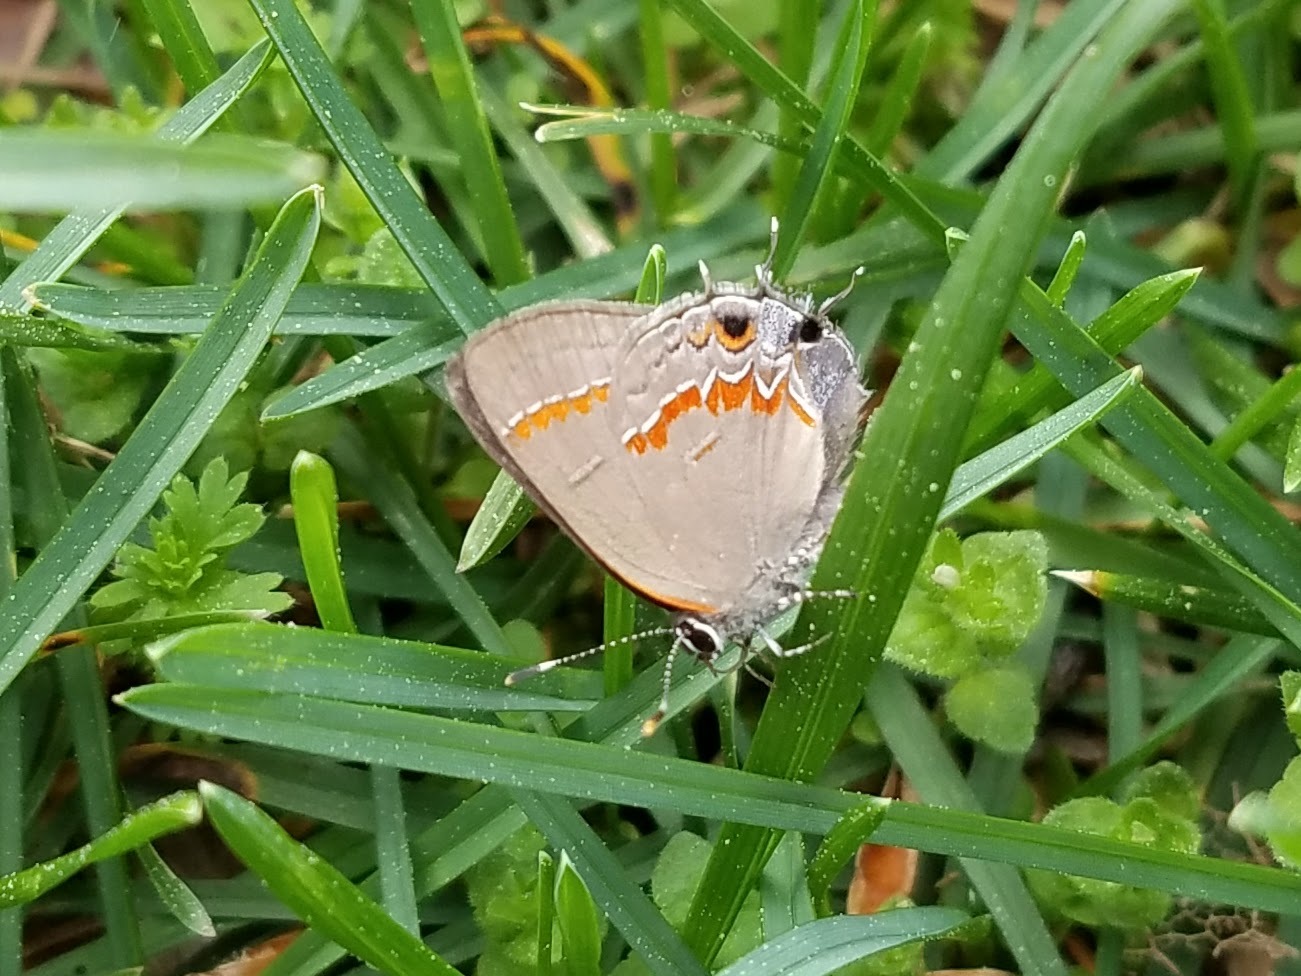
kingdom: Animalia
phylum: Arthropoda
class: Insecta
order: Lepidoptera
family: Lycaenidae
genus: Calycopis
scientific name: Calycopis cecrops
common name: Red-banded hairstreak
